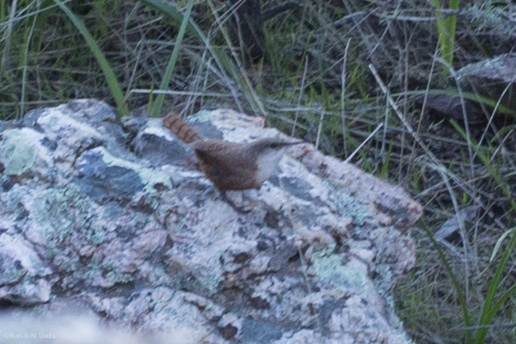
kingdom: Animalia
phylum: Chordata
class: Aves
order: Passeriformes
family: Troglodytidae
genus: Catherpes
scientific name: Catherpes mexicanus
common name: Canyon wren
